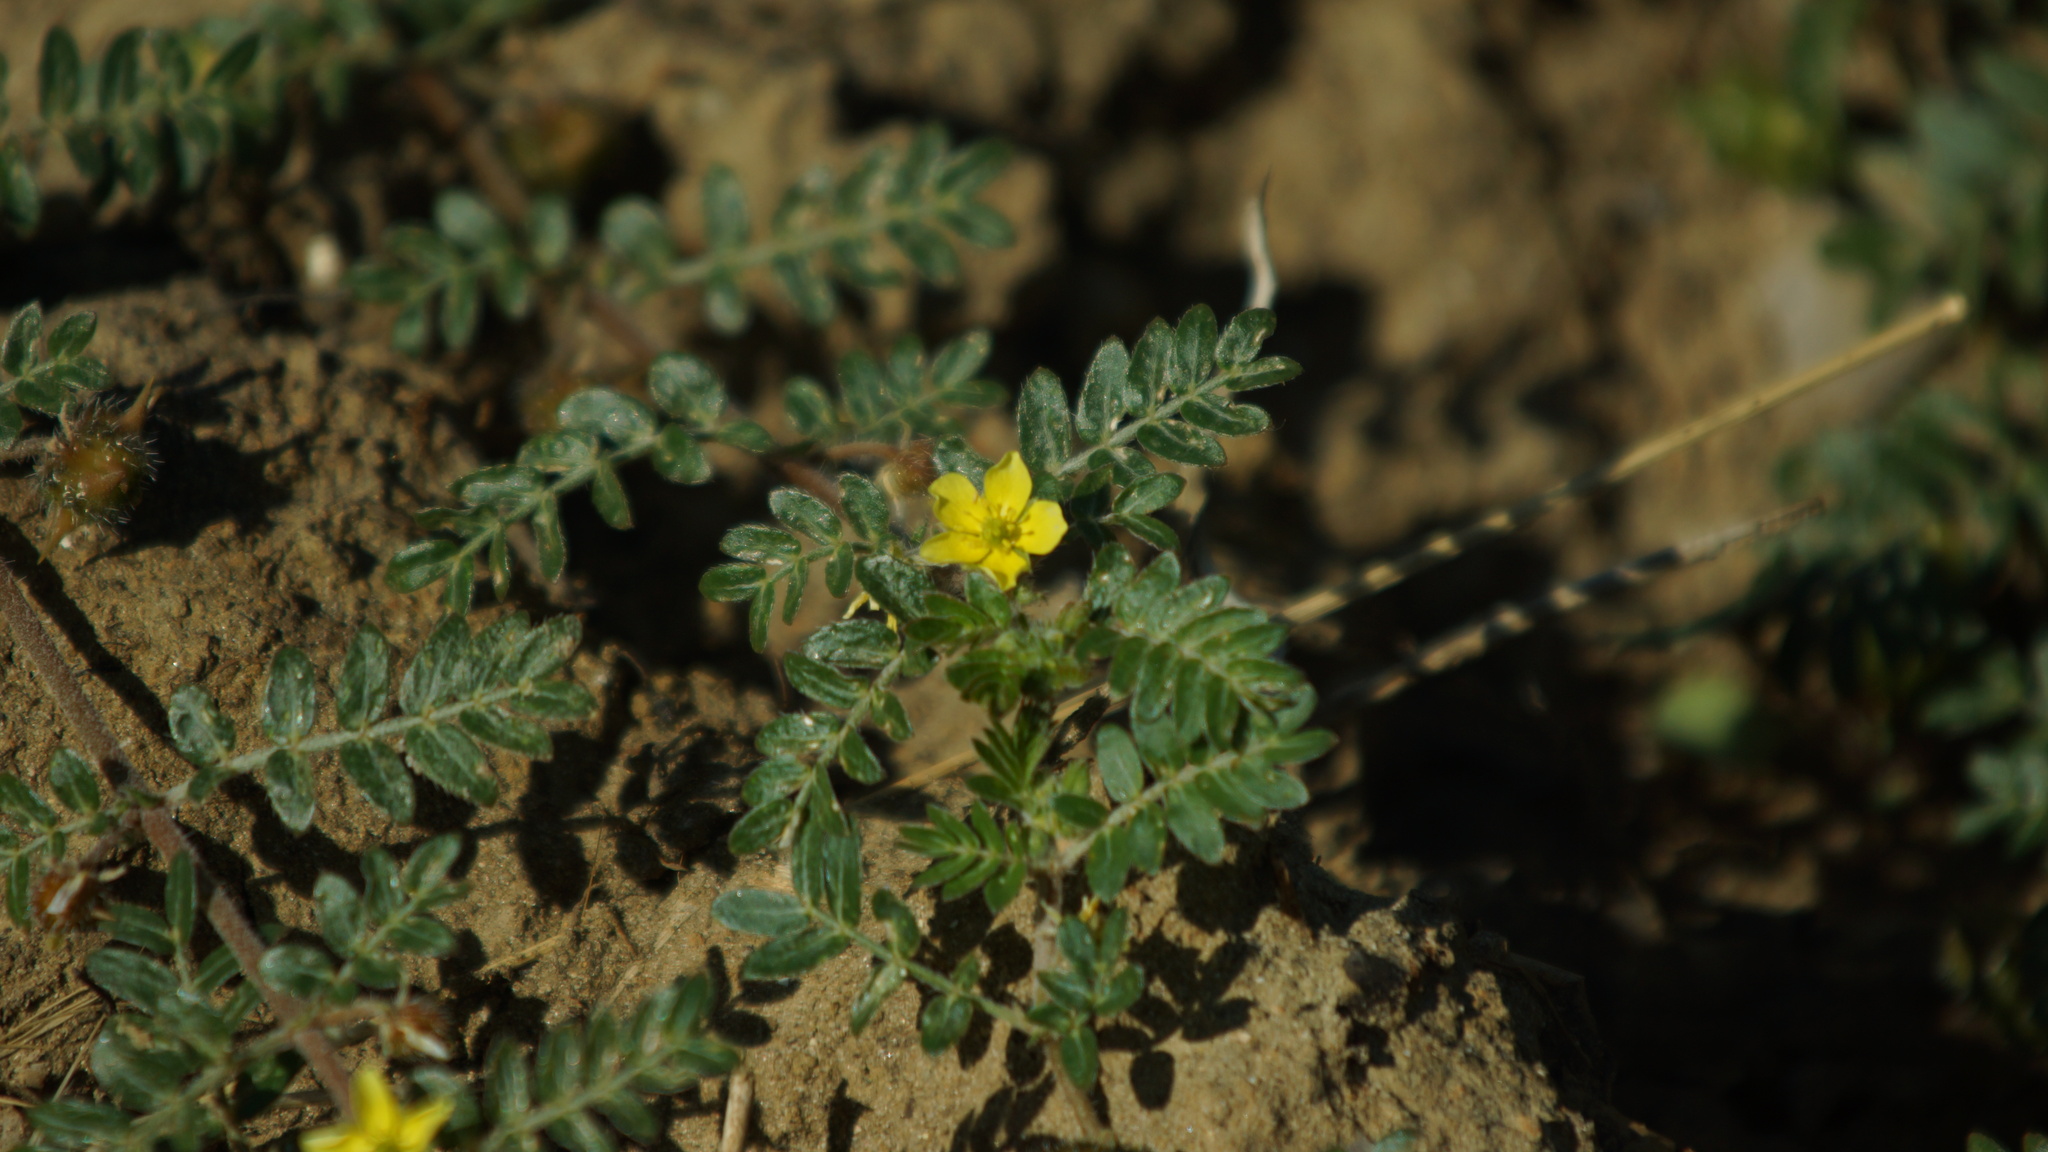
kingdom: Plantae
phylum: Tracheophyta
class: Magnoliopsida
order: Zygophyllales
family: Zygophyllaceae
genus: Tribulus
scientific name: Tribulus terrestris
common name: Puncturevine
